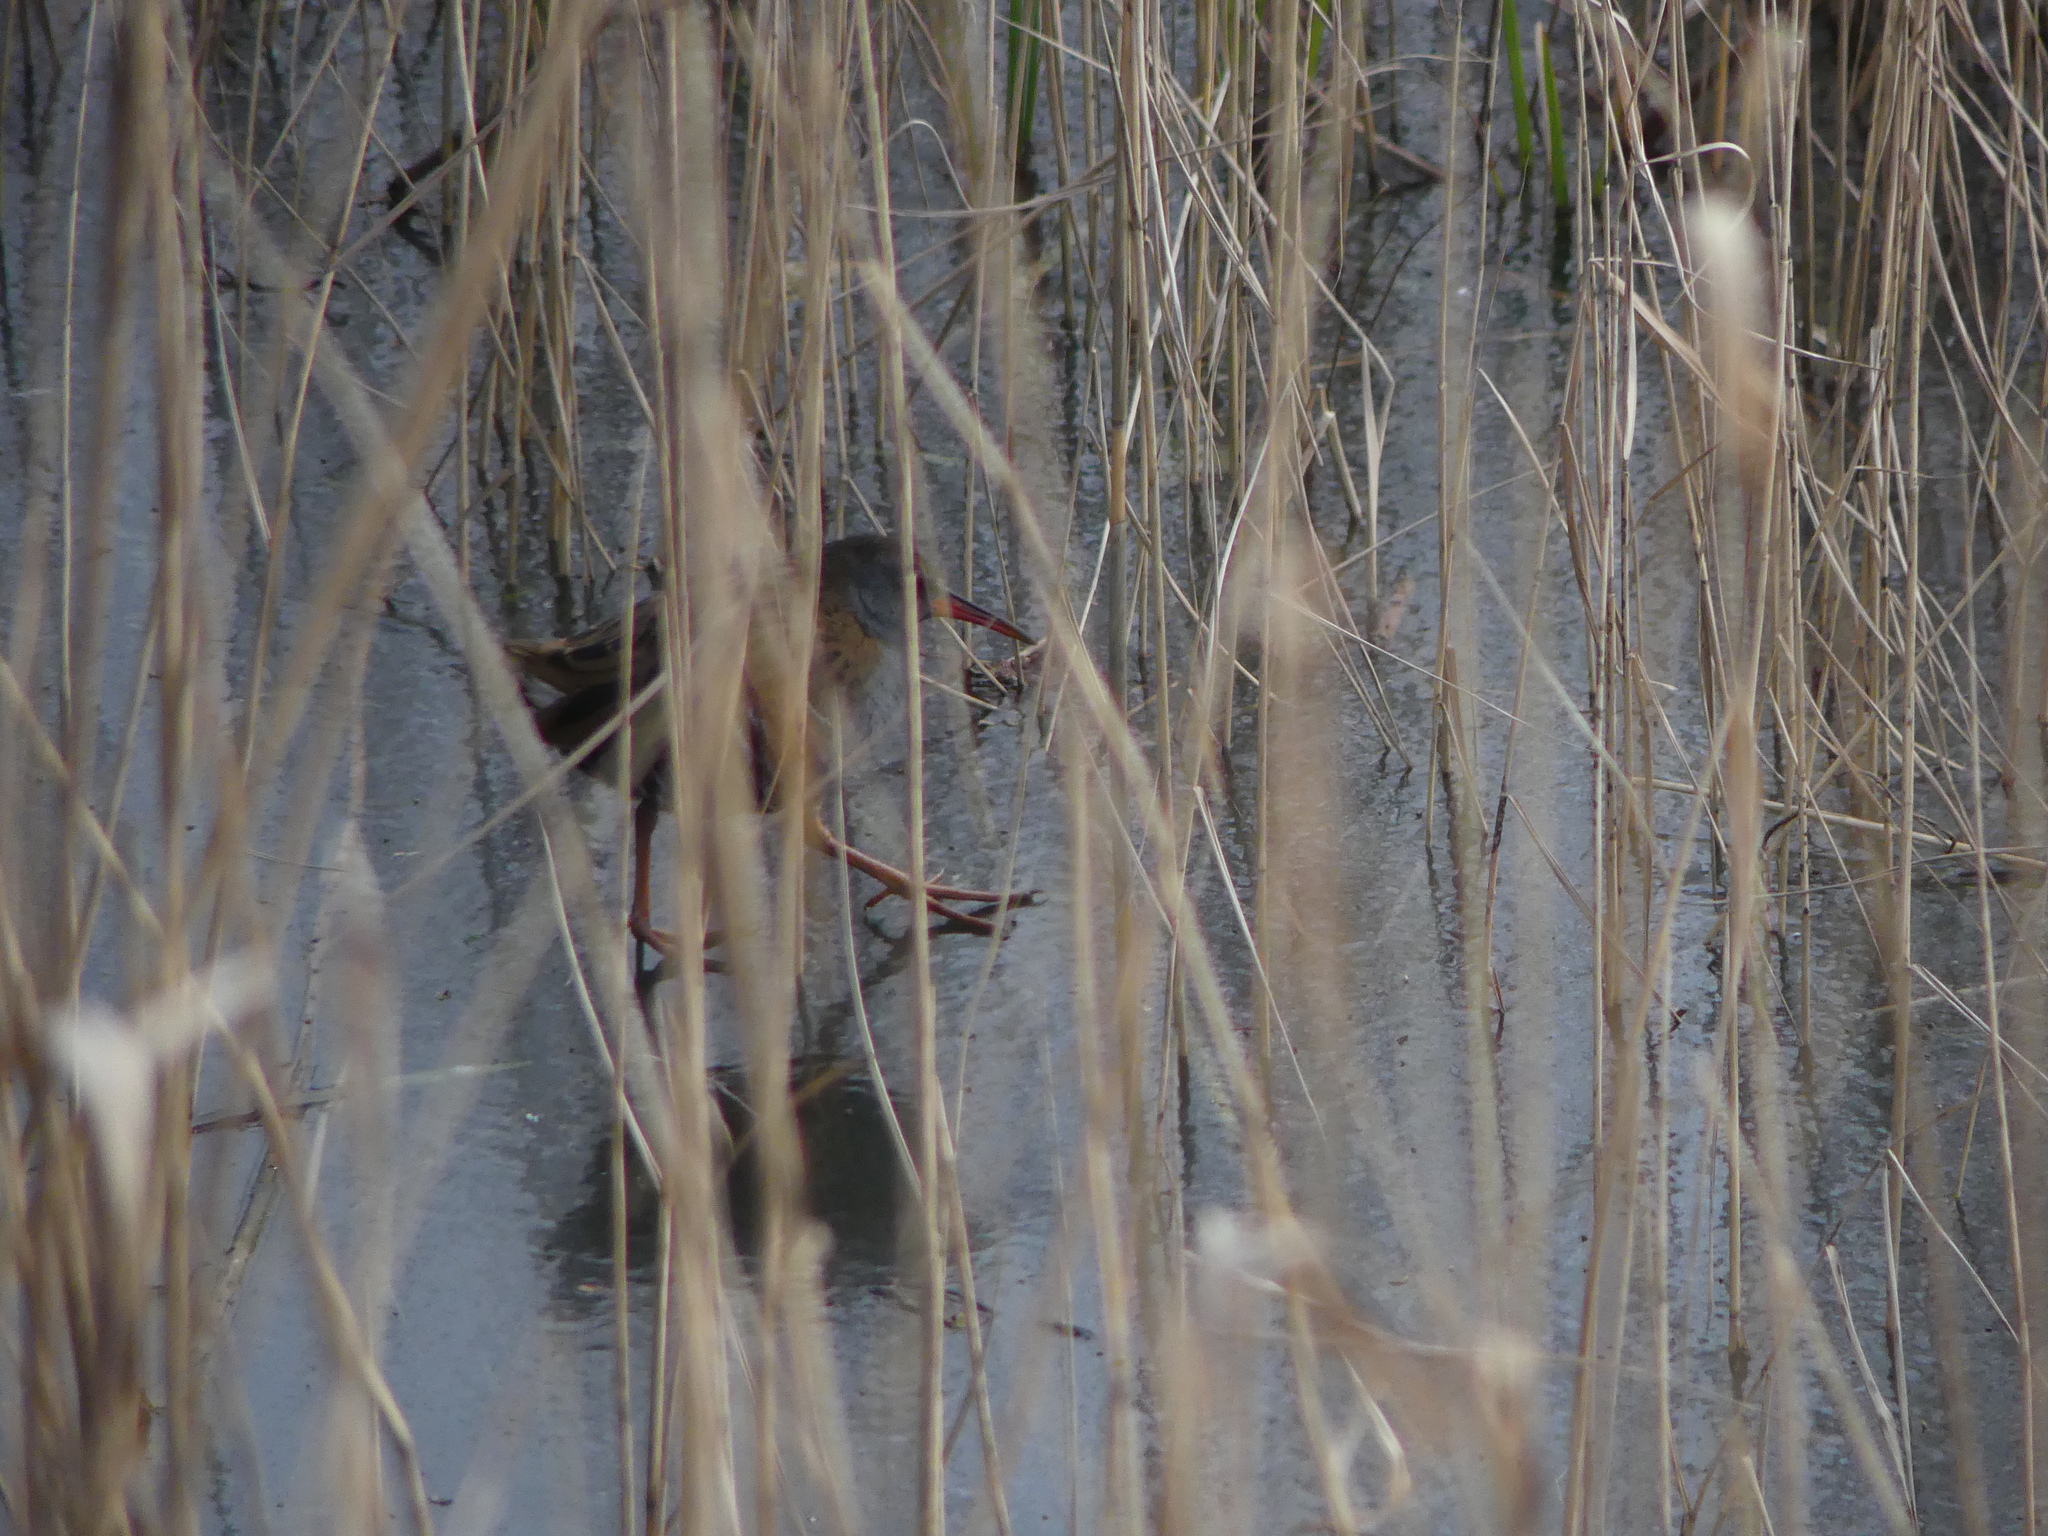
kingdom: Animalia
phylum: Chordata
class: Aves
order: Gruiformes
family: Rallidae
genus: Rallus
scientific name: Rallus aquaticus
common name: Water rail
